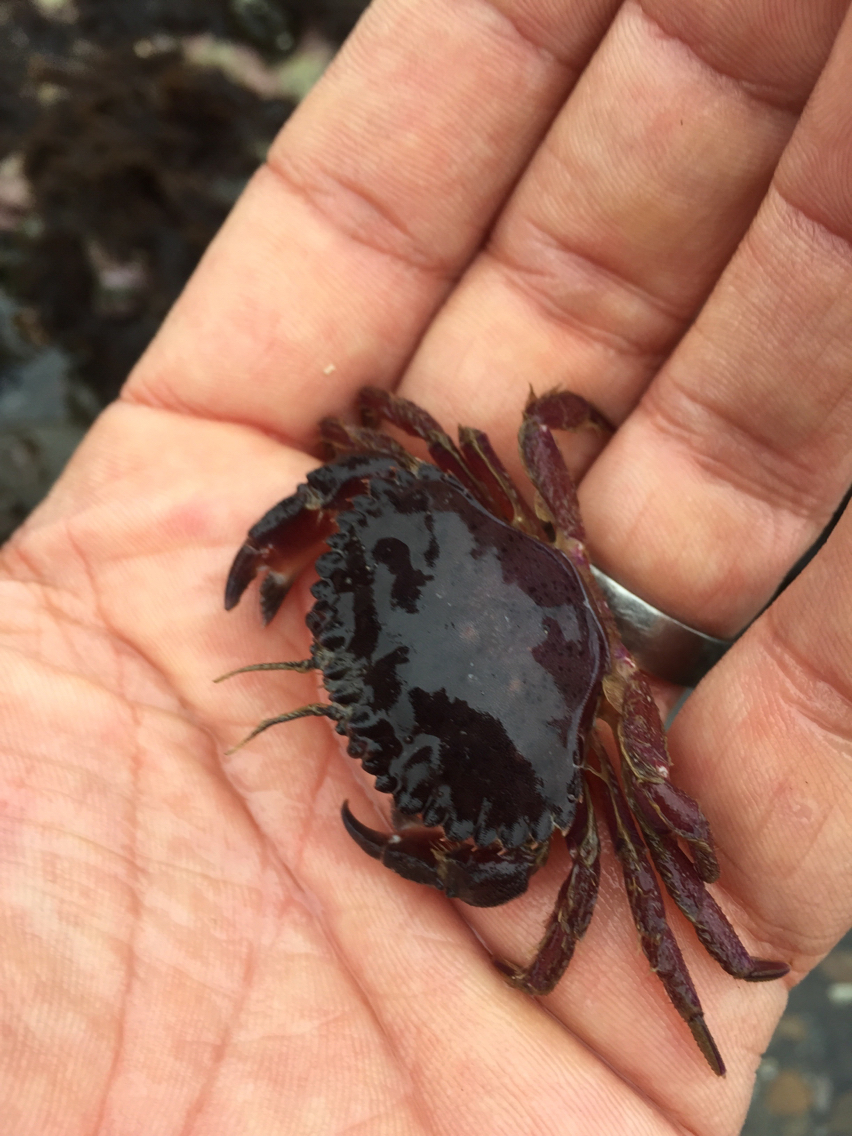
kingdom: Animalia
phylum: Arthropoda
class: Malacostraca
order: Decapoda
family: Cancridae
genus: Romaleon
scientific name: Romaleon antennarium
